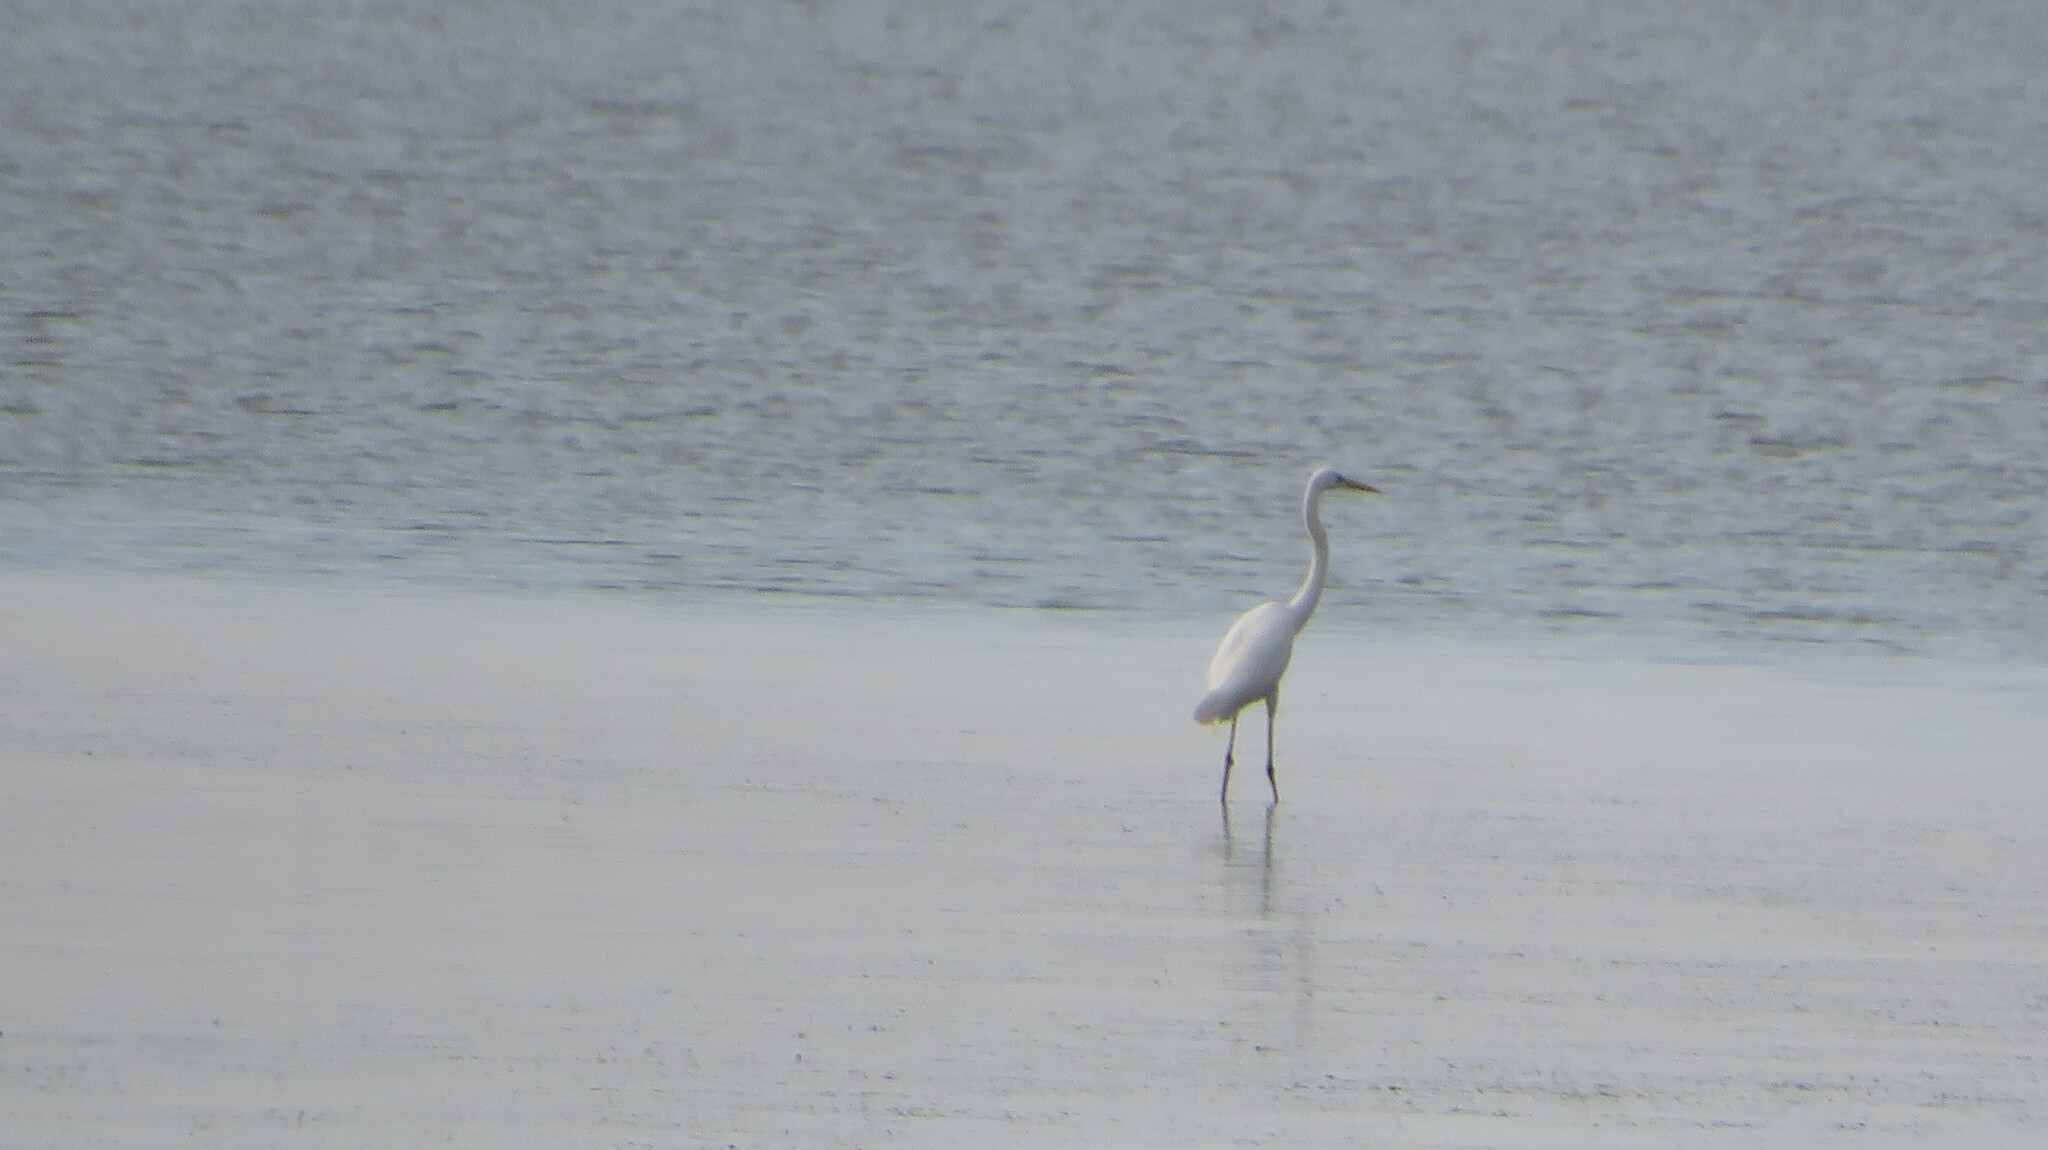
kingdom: Animalia
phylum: Chordata
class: Aves
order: Pelecaniformes
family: Ardeidae
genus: Ardea
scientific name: Ardea alba
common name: Great egret
